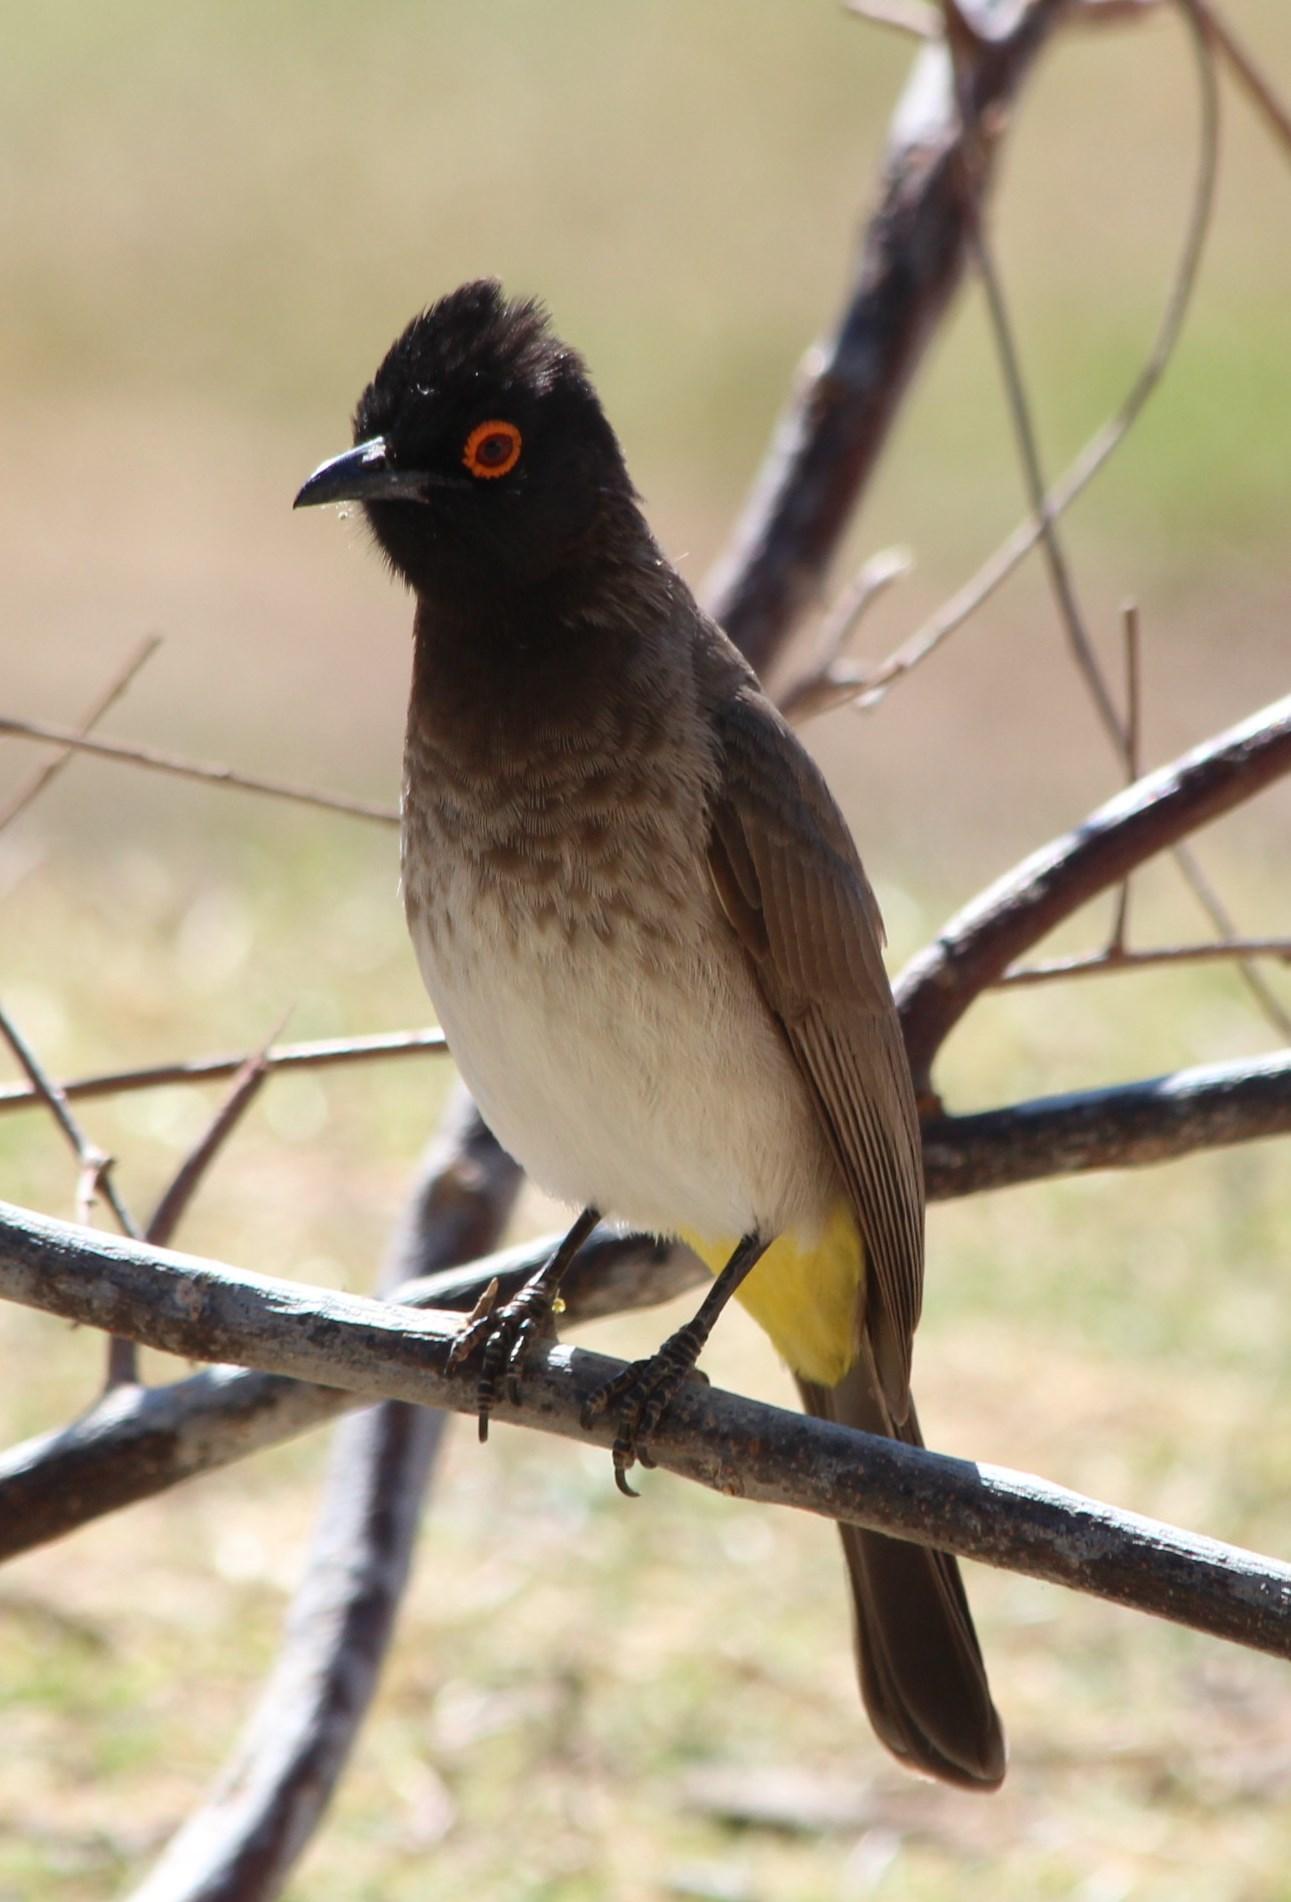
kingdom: Animalia
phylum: Chordata
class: Aves
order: Passeriformes
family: Pycnonotidae
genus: Pycnonotus
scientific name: Pycnonotus nigricans
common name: African red-eyed bulbul
